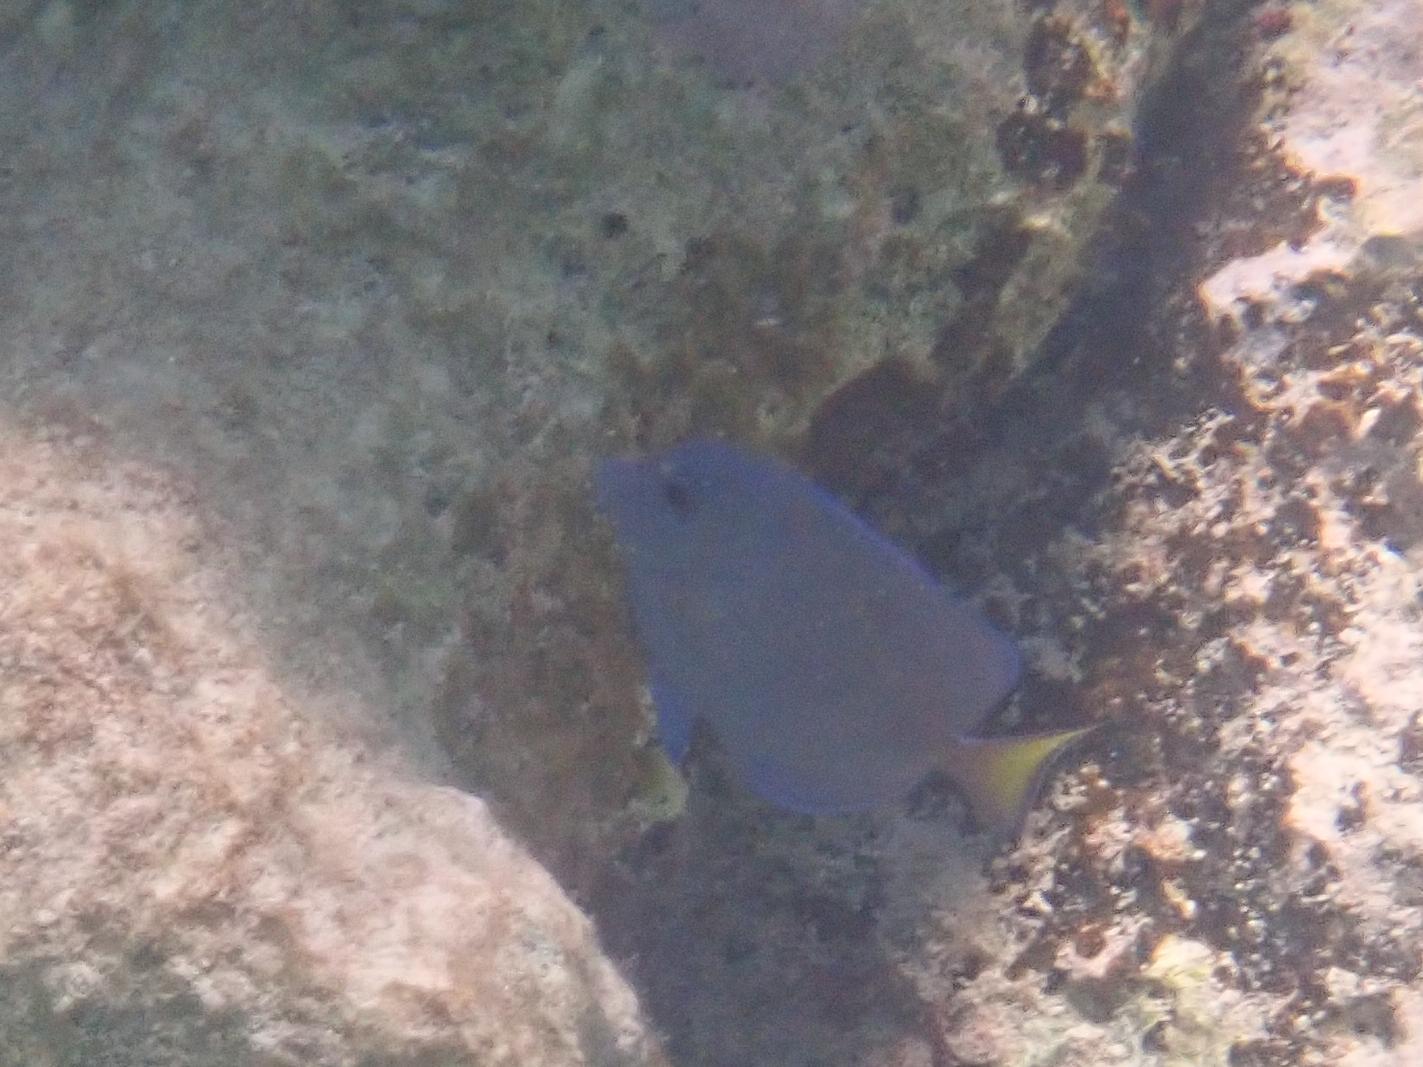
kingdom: Animalia
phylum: Chordata
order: Perciformes
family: Acanthuridae
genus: Acanthurus
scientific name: Acanthurus coeruleus
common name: Blue tang
